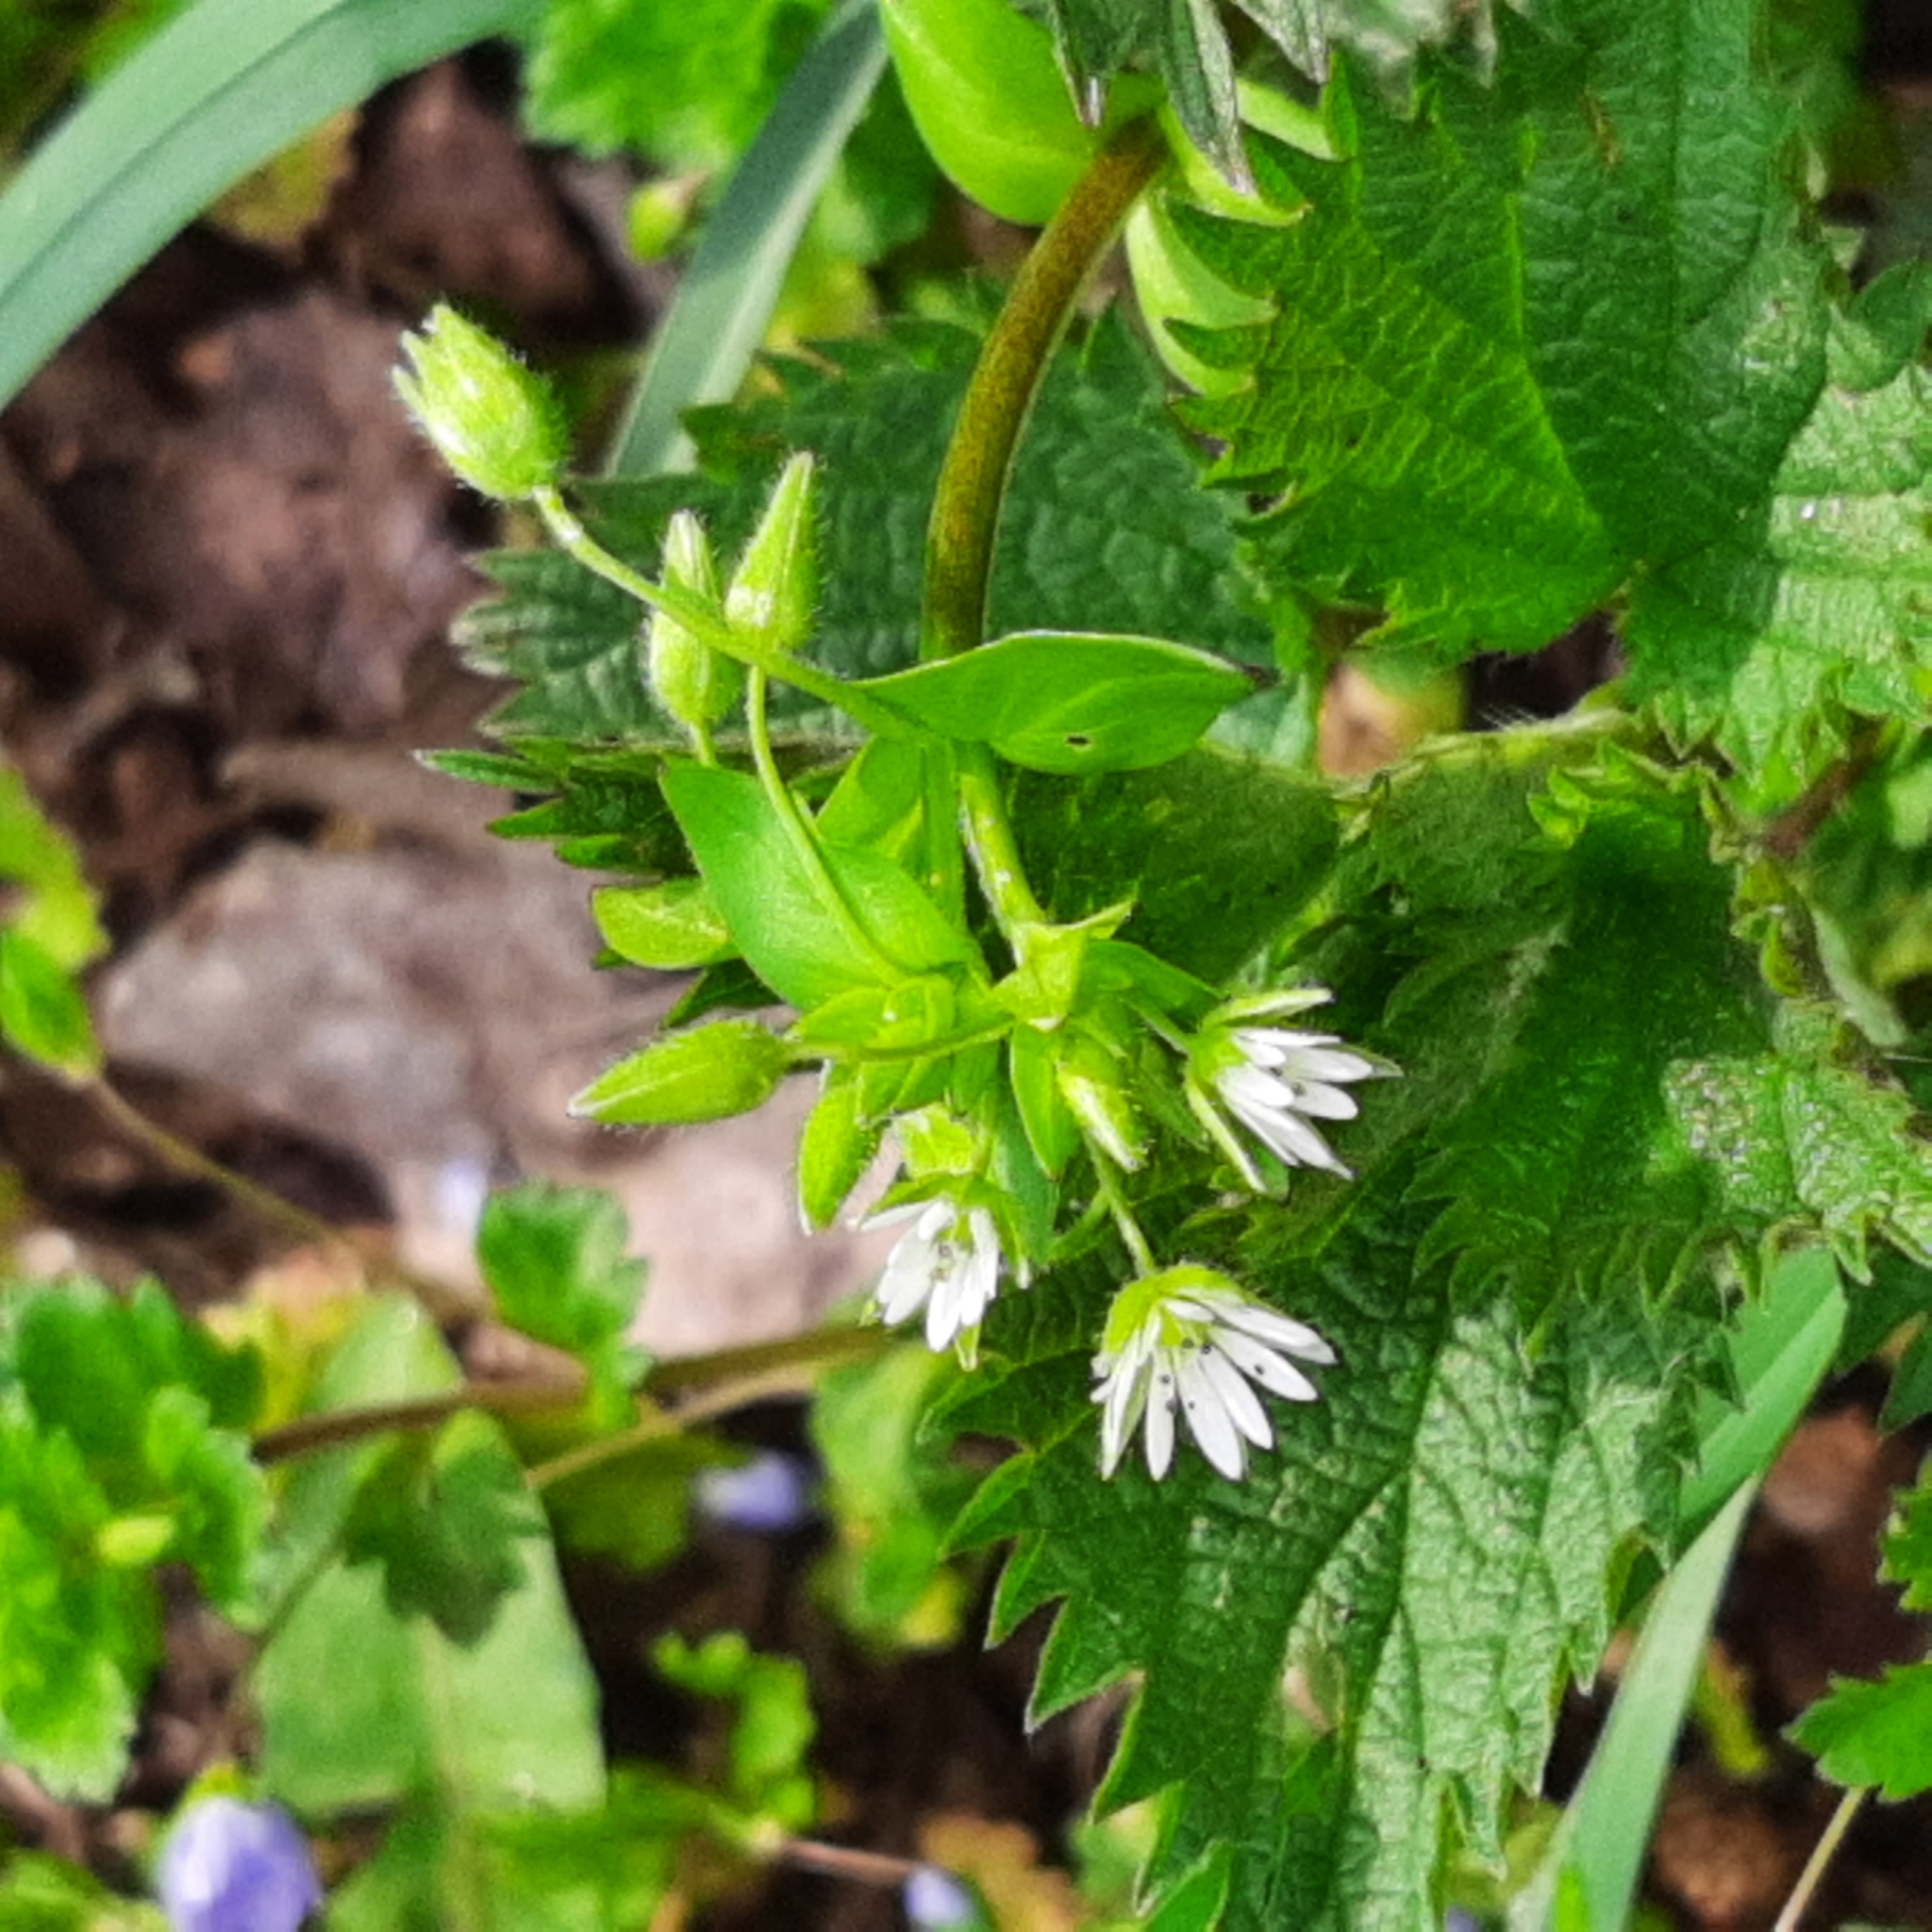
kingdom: Plantae
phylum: Tracheophyta
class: Magnoliopsida
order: Caryophyllales
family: Caryophyllaceae
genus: Stellaria
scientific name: Stellaria
